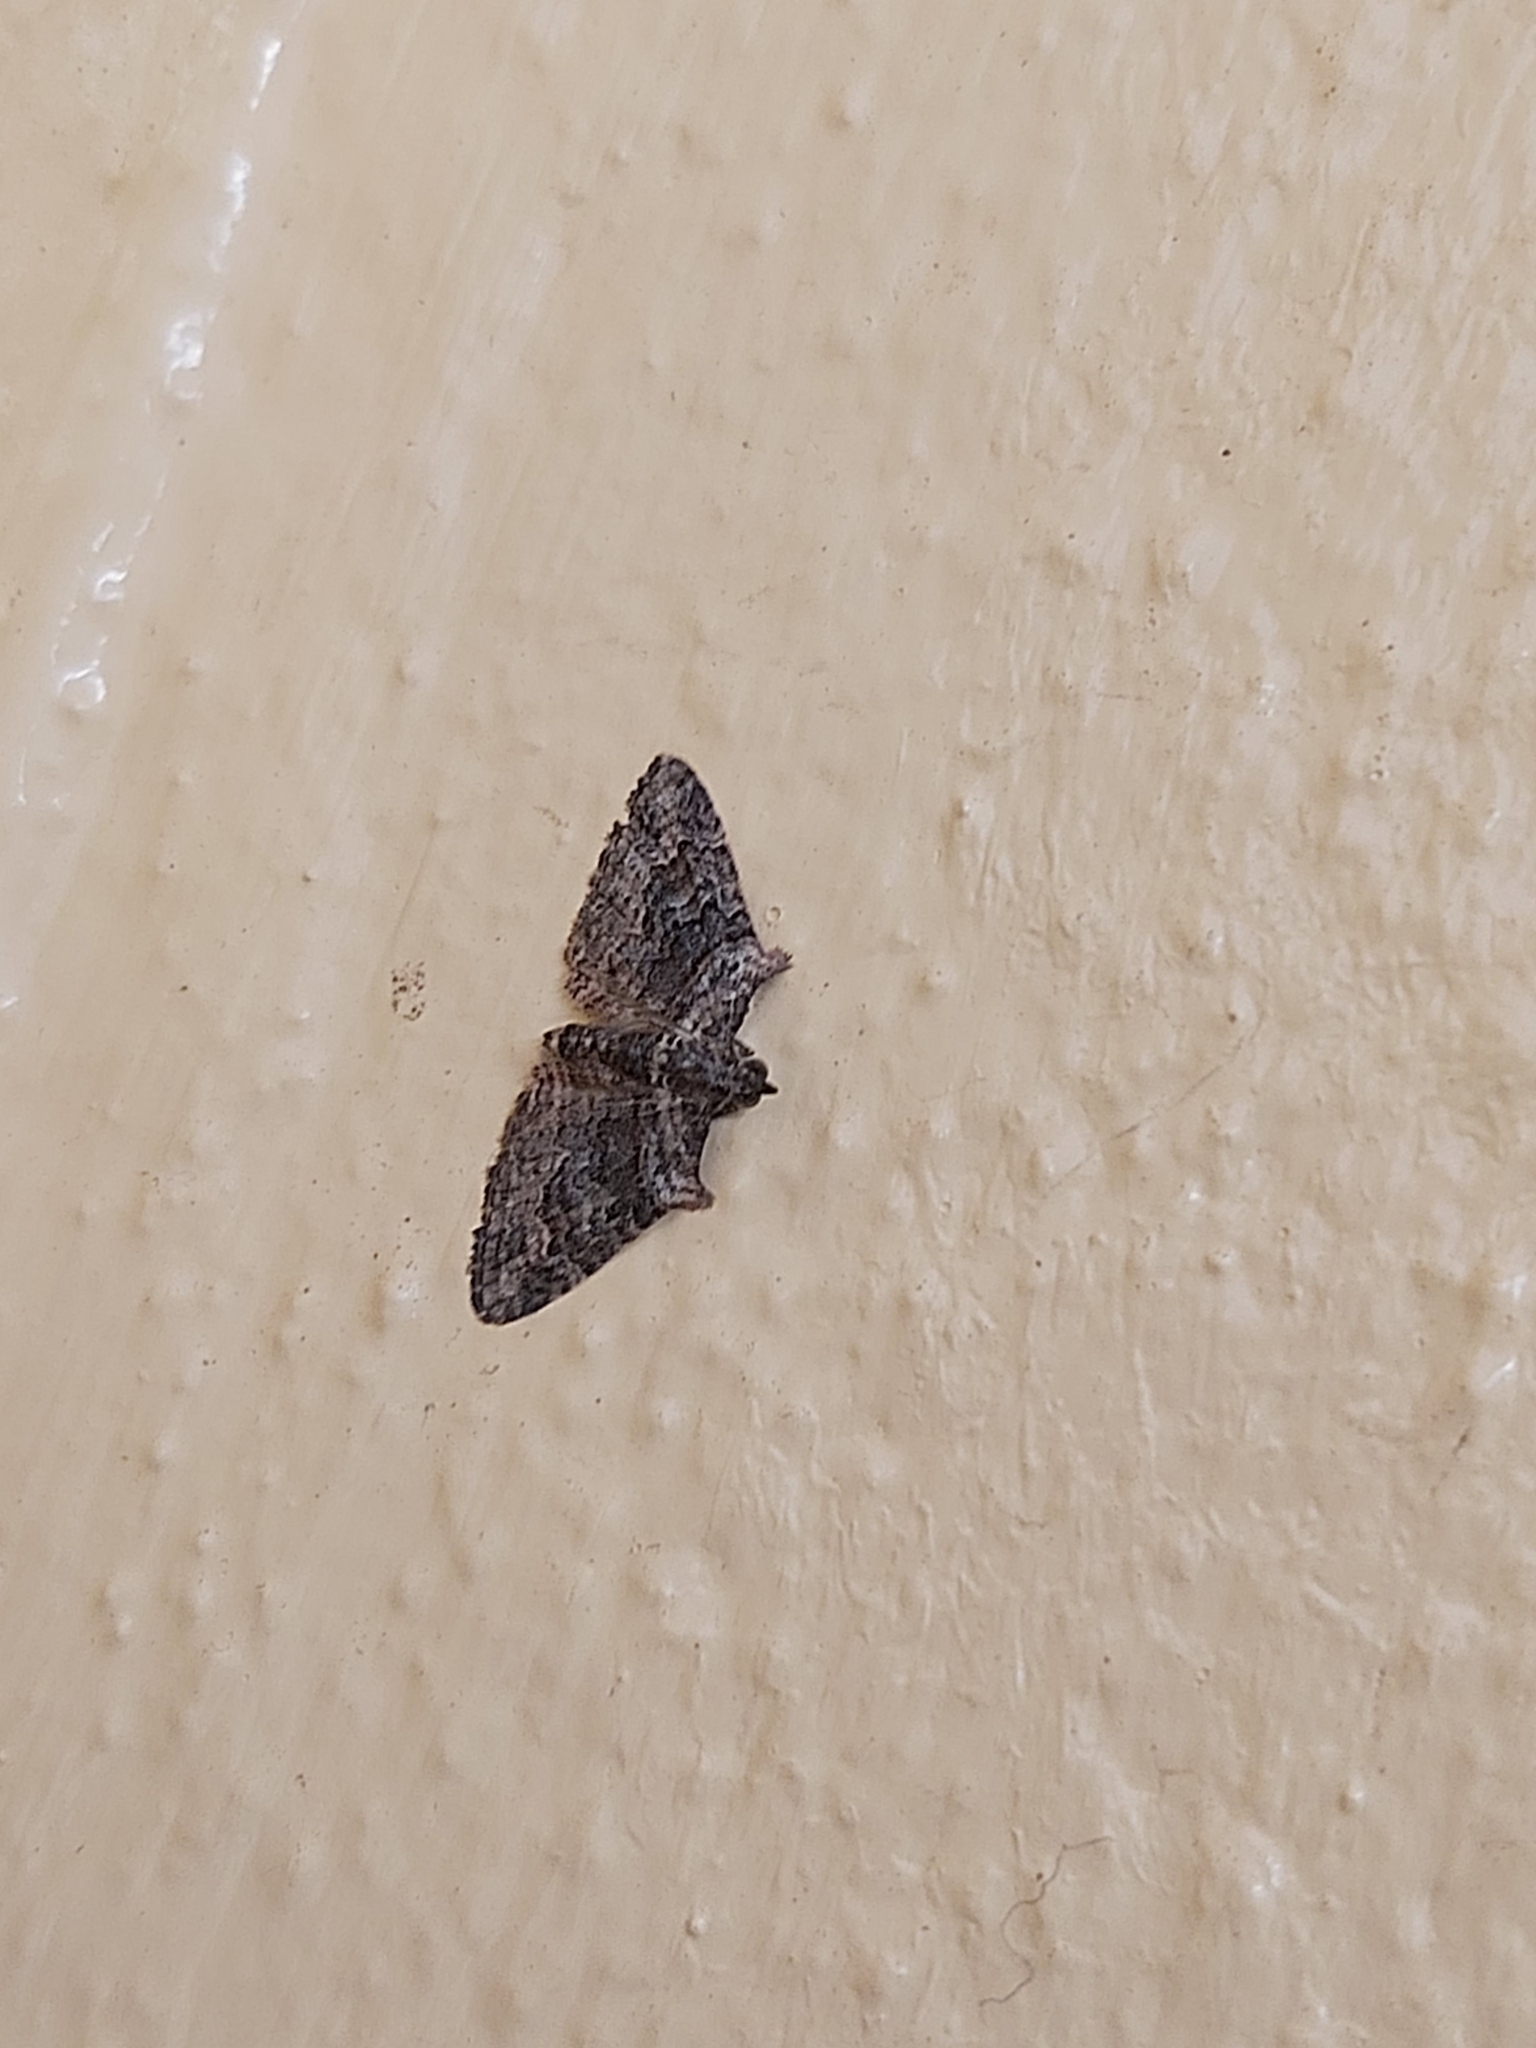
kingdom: Animalia
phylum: Arthropoda
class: Insecta
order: Lepidoptera
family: Geometridae
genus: Phrissogonus
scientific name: Phrissogonus laticostata
